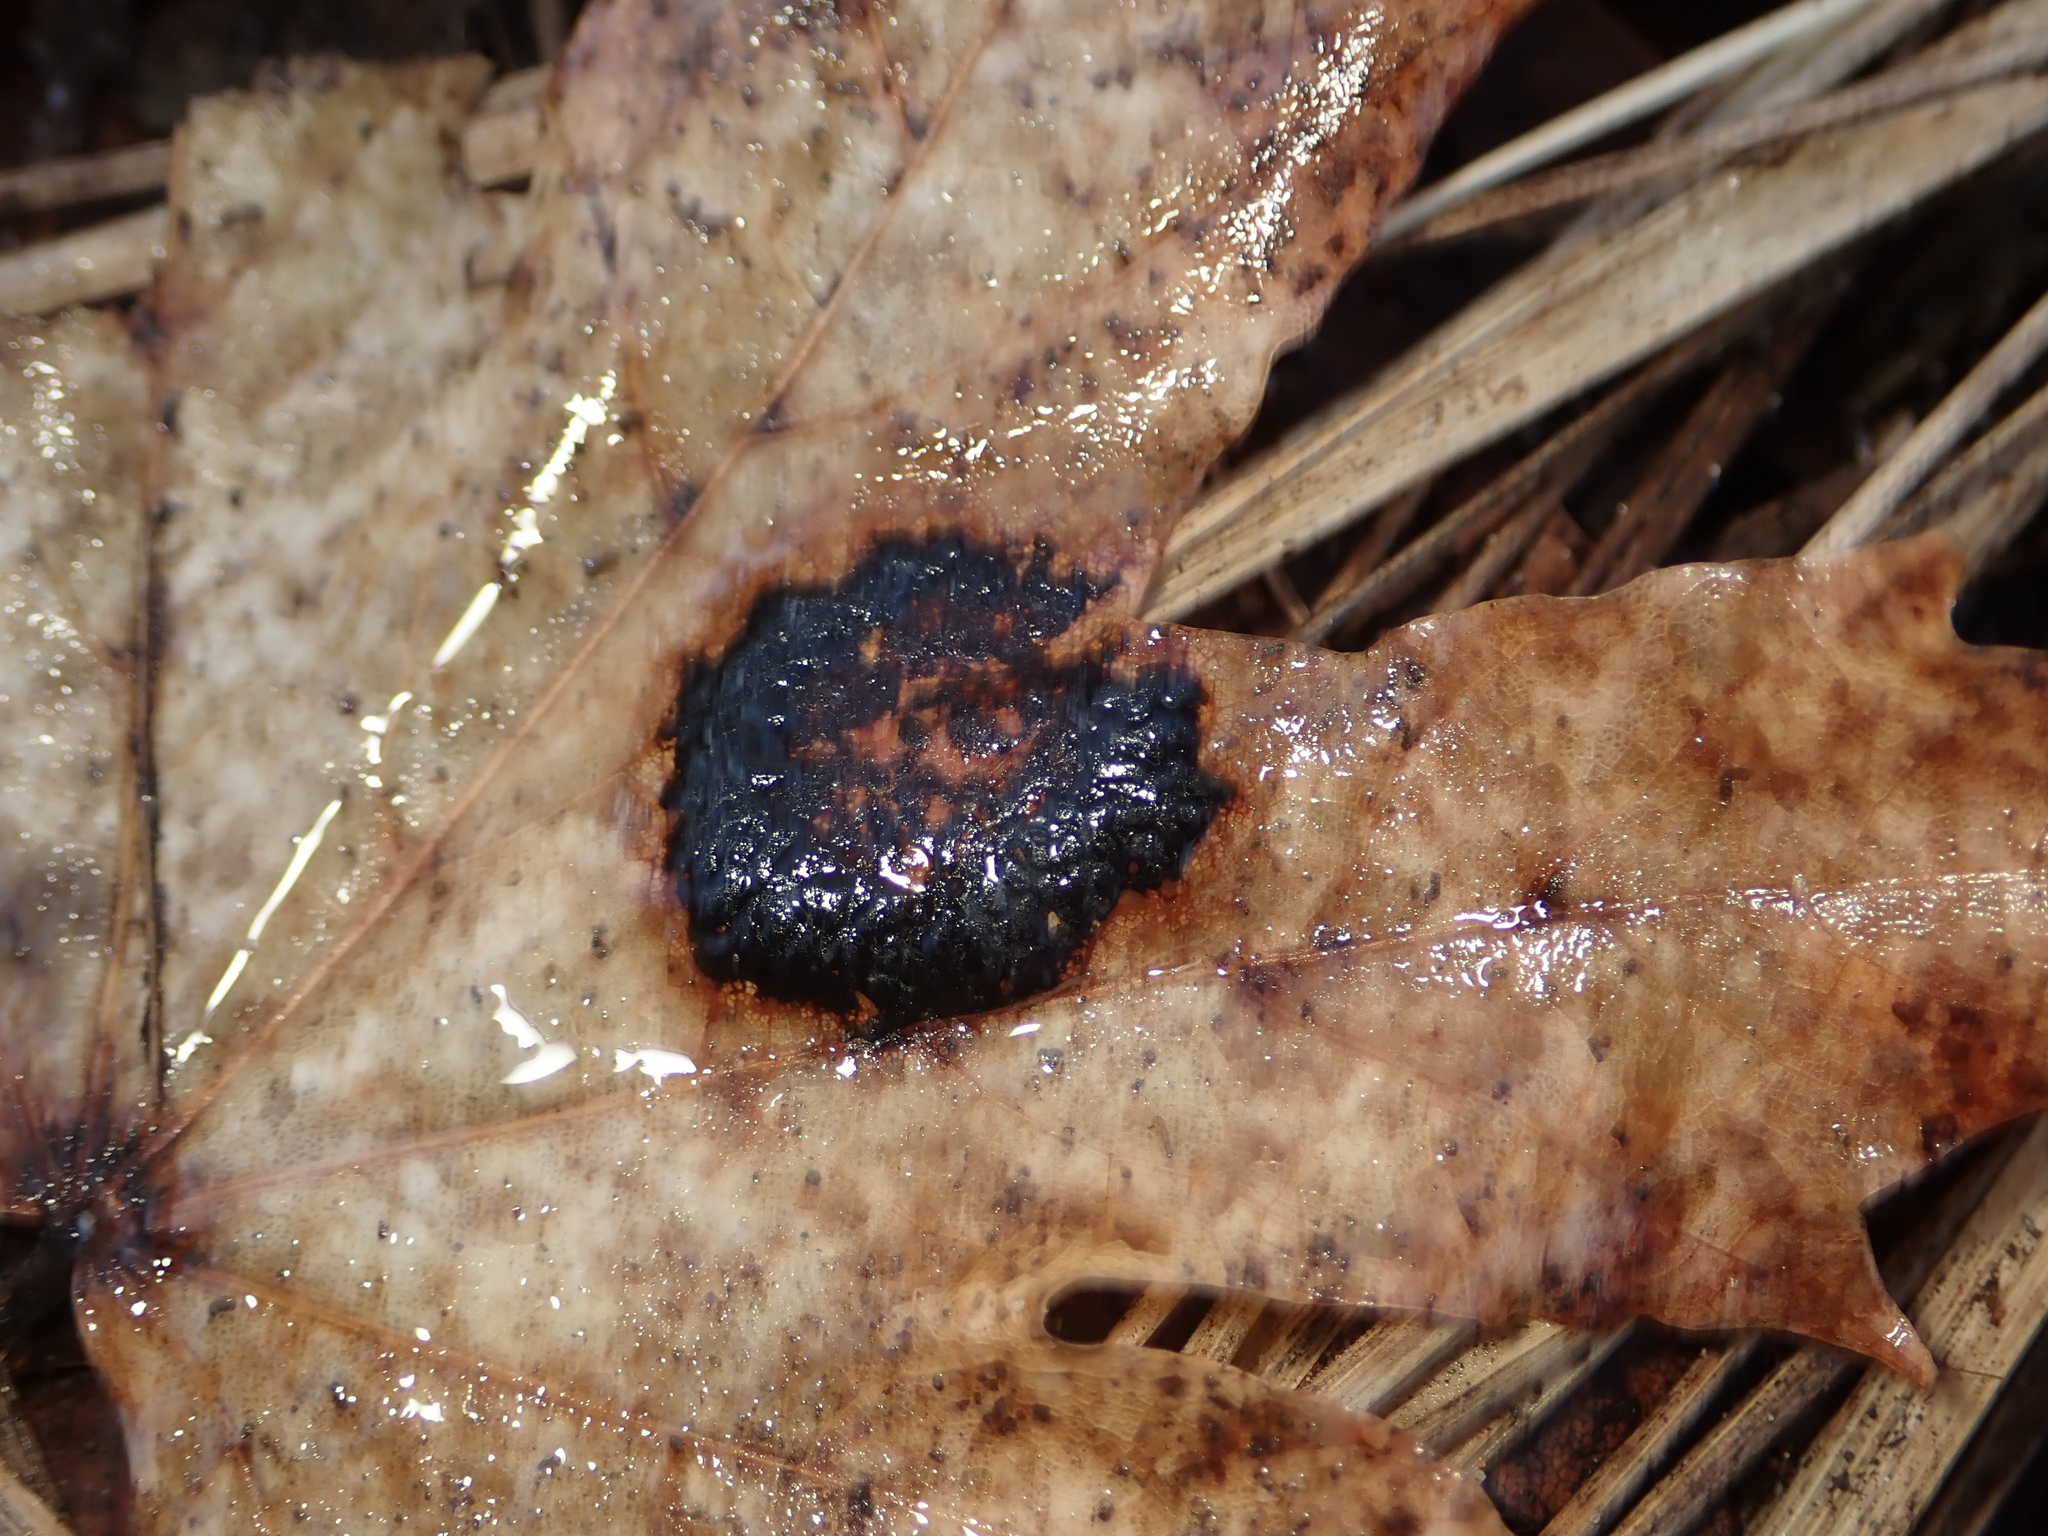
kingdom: Fungi
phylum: Ascomycota
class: Leotiomycetes
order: Rhytismatales
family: Rhytismataceae
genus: Rhytisma
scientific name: Rhytisma acerinum
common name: European tar spot
